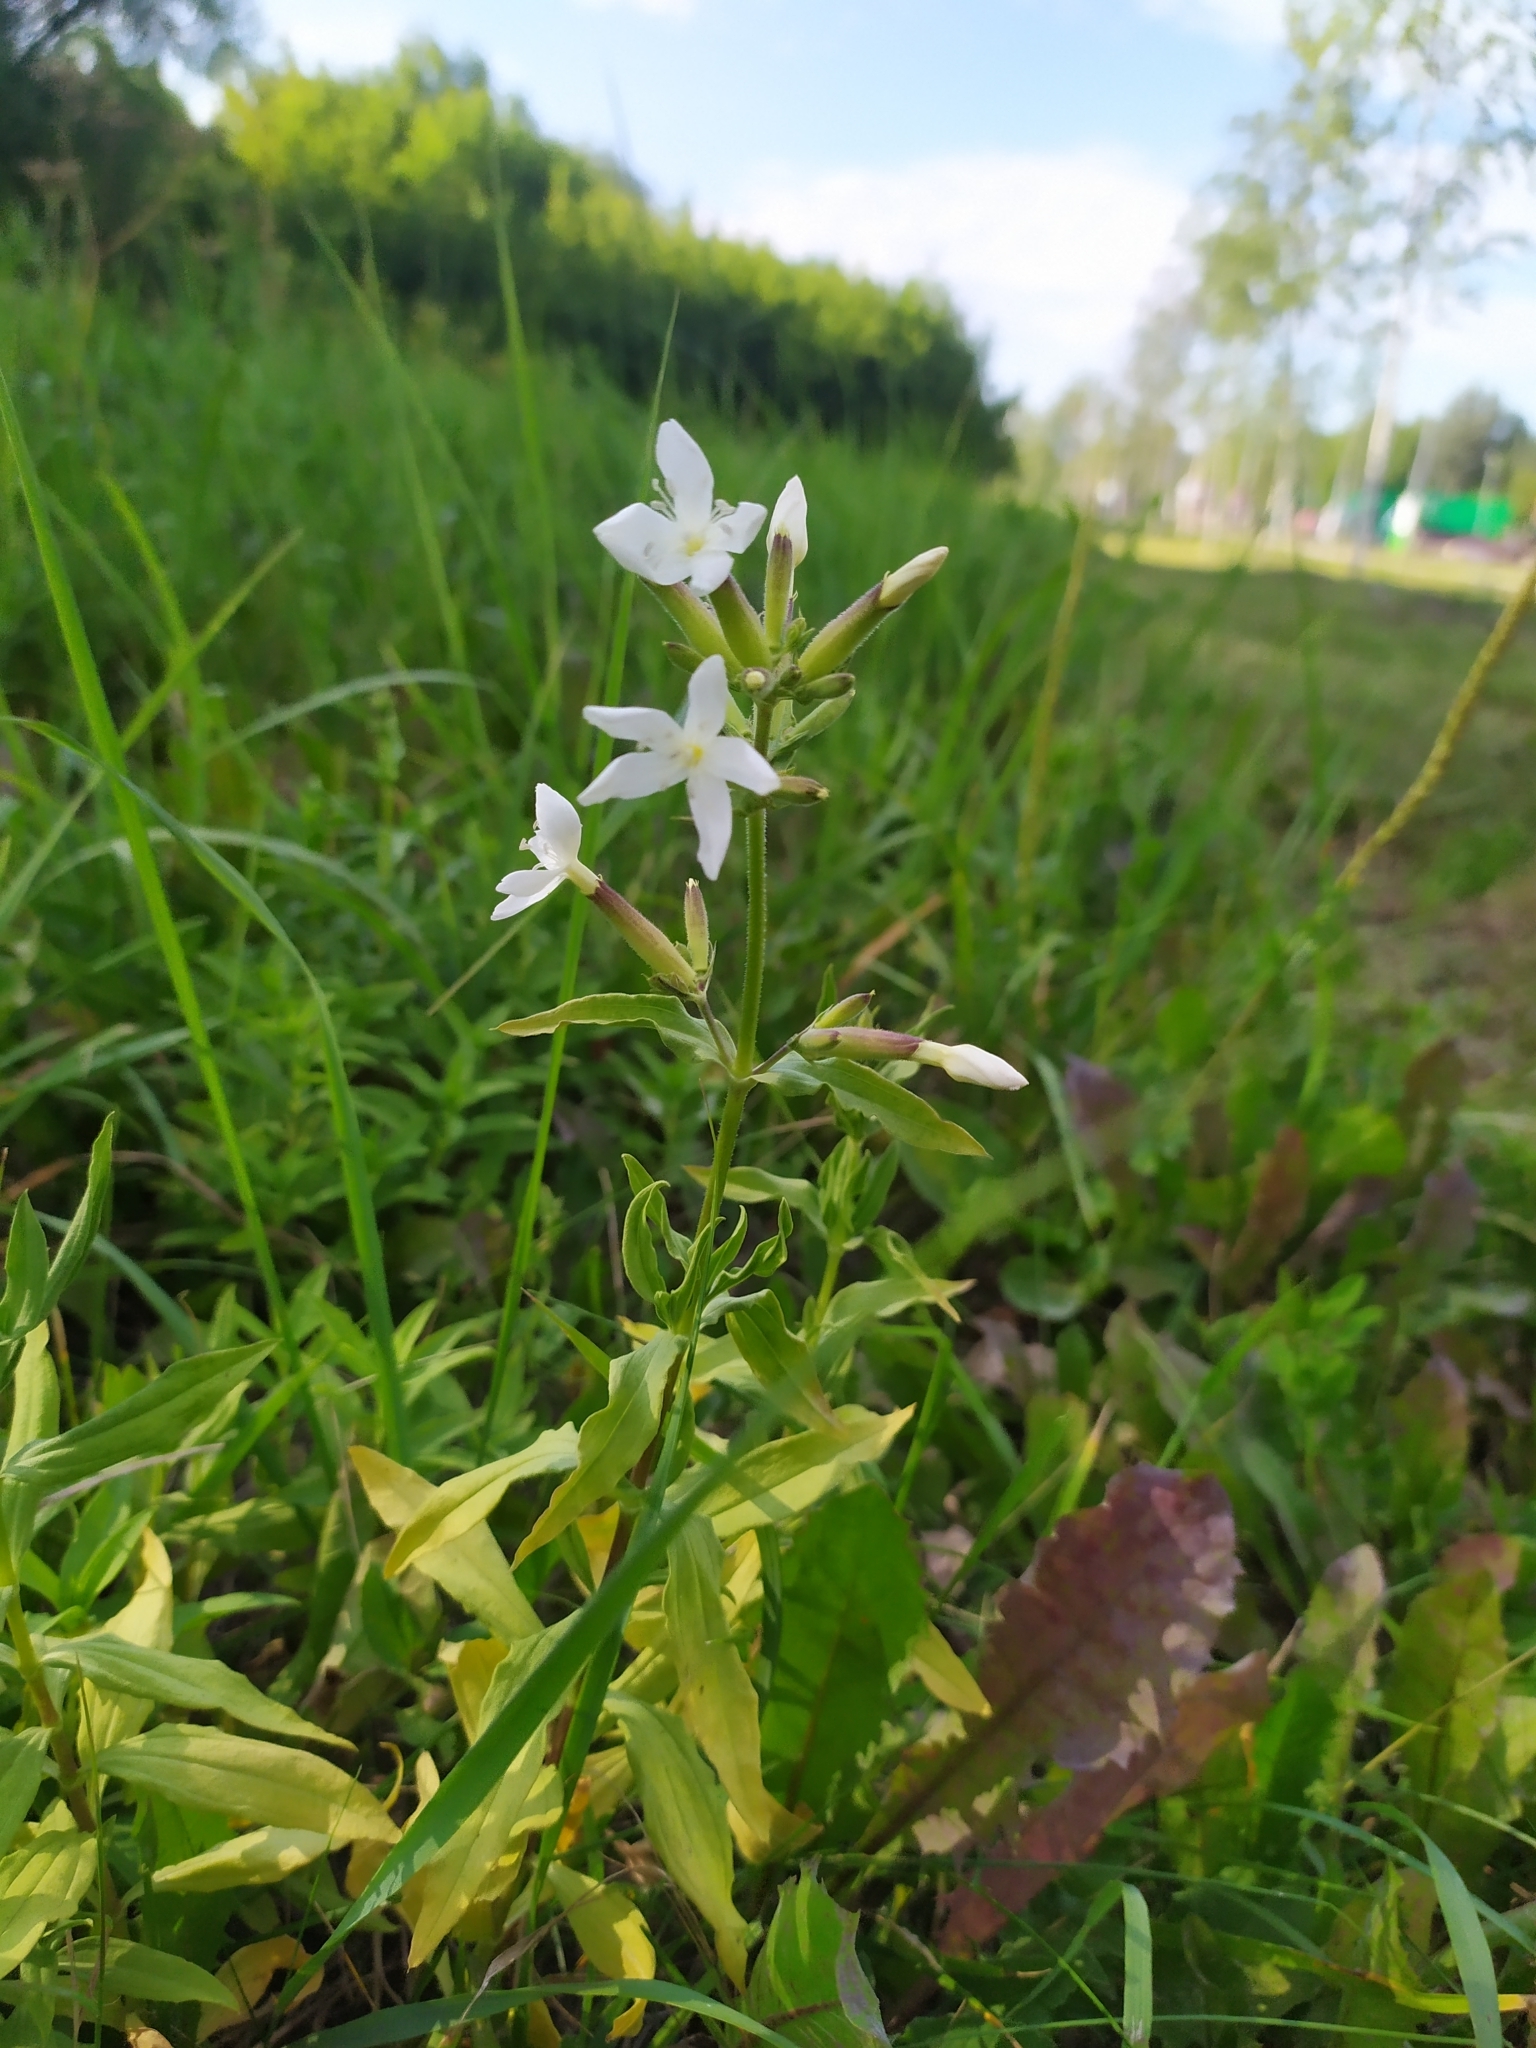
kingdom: Plantae
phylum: Tracheophyta
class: Magnoliopsida
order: Caryophyllales
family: Caryophyllaceae
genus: Saponaria
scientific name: Saponaria officinalis
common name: Soapwort
